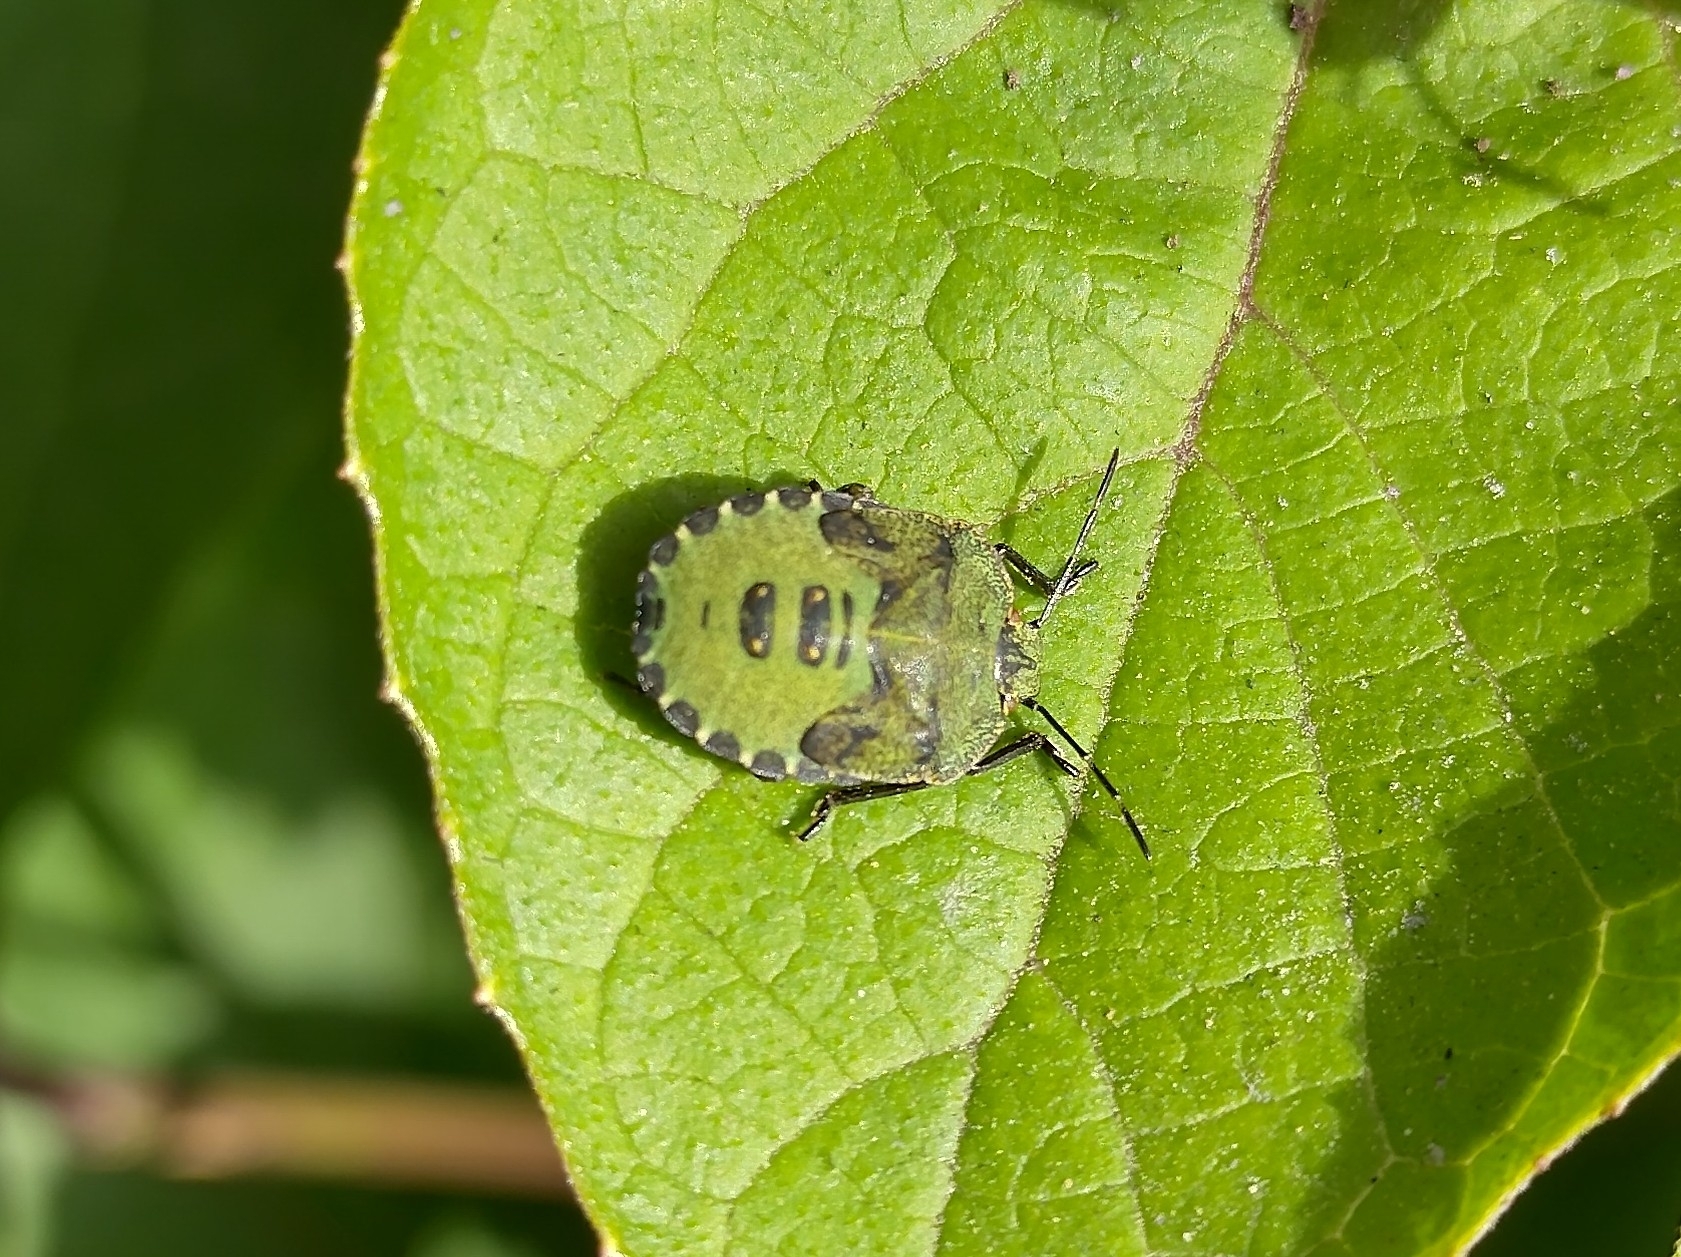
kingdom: Animalia
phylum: Arthropoda
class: Insecta
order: Hemiptera
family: Pentatomidae
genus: Palomena
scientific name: Palomena prasina
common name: Green shieldbug
